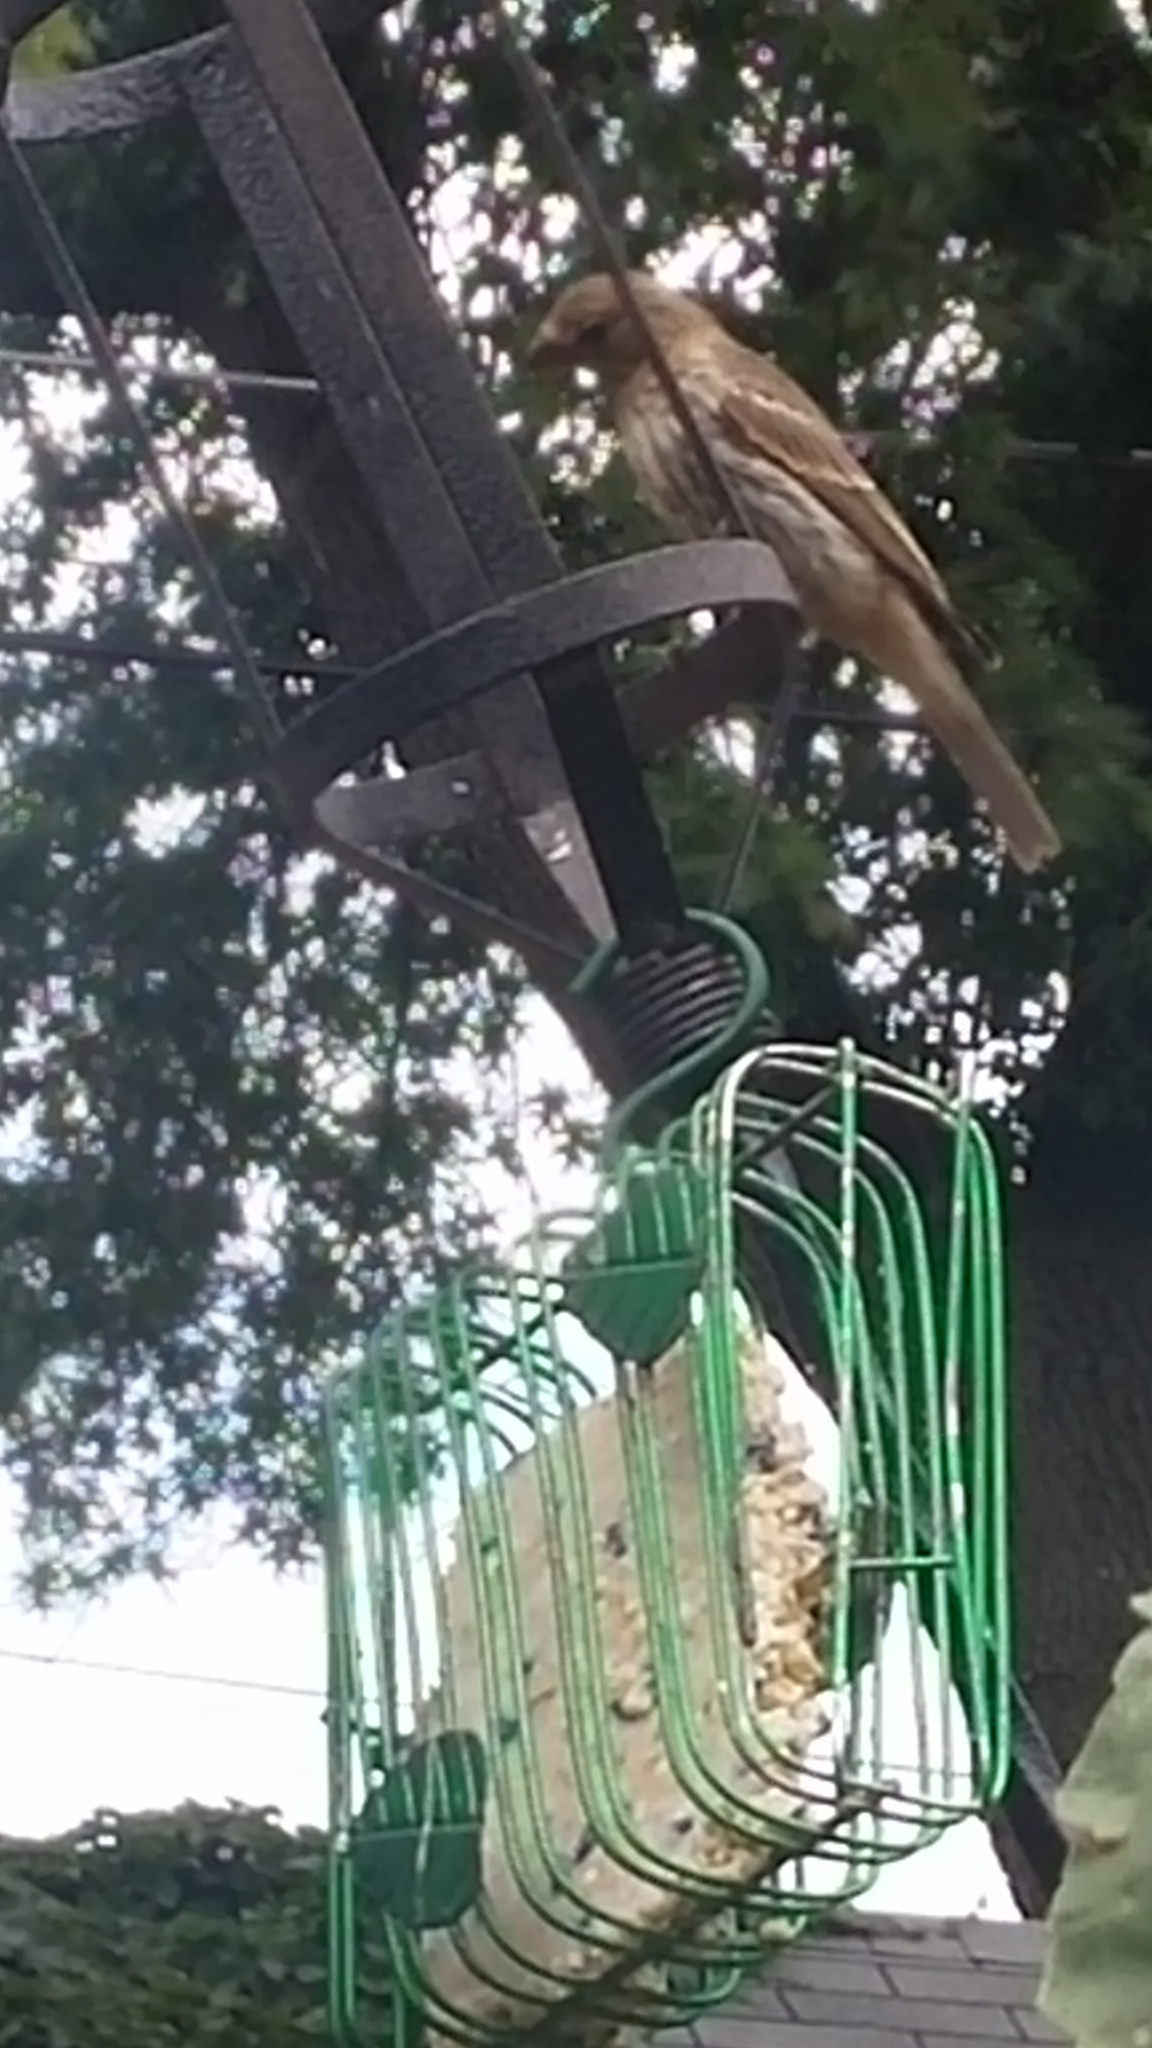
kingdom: Animalia
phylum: Chordata
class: Aves
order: Passeriformes
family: Fringillidae
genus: Haemorhous
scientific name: Haemorhous mexicanus
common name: House finch
